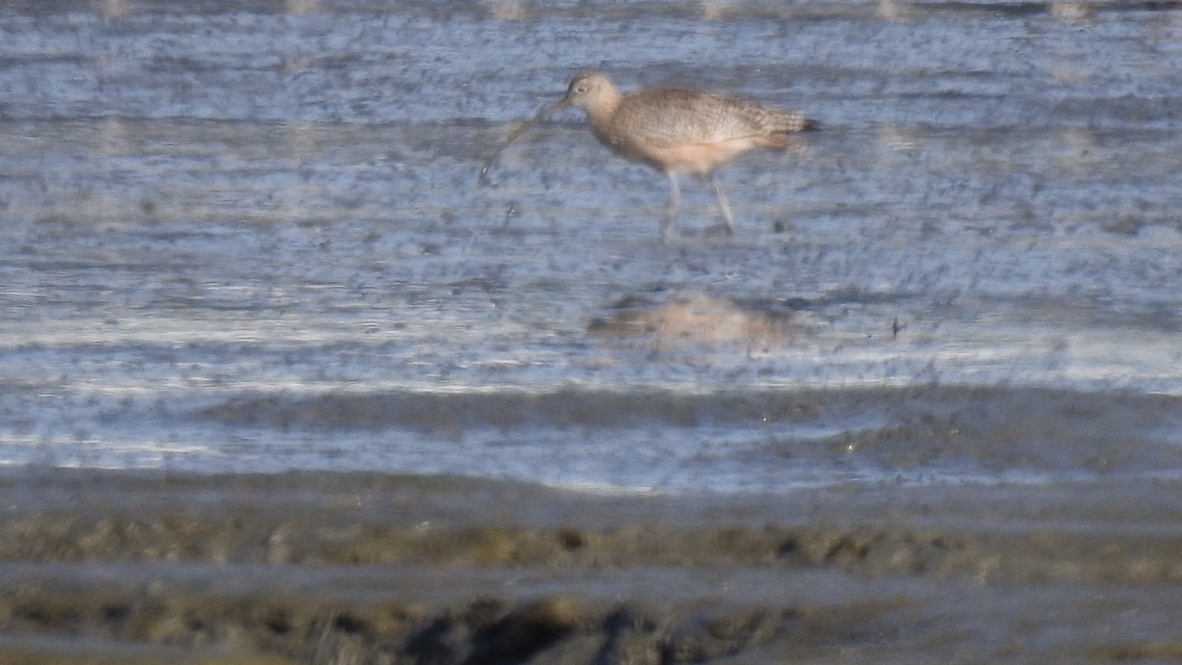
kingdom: Animalia
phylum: Chordata
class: Aves
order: Charadriiformes
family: Scolopacidae
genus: Numenius
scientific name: Numenius americanus
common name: Long-billed curlew
